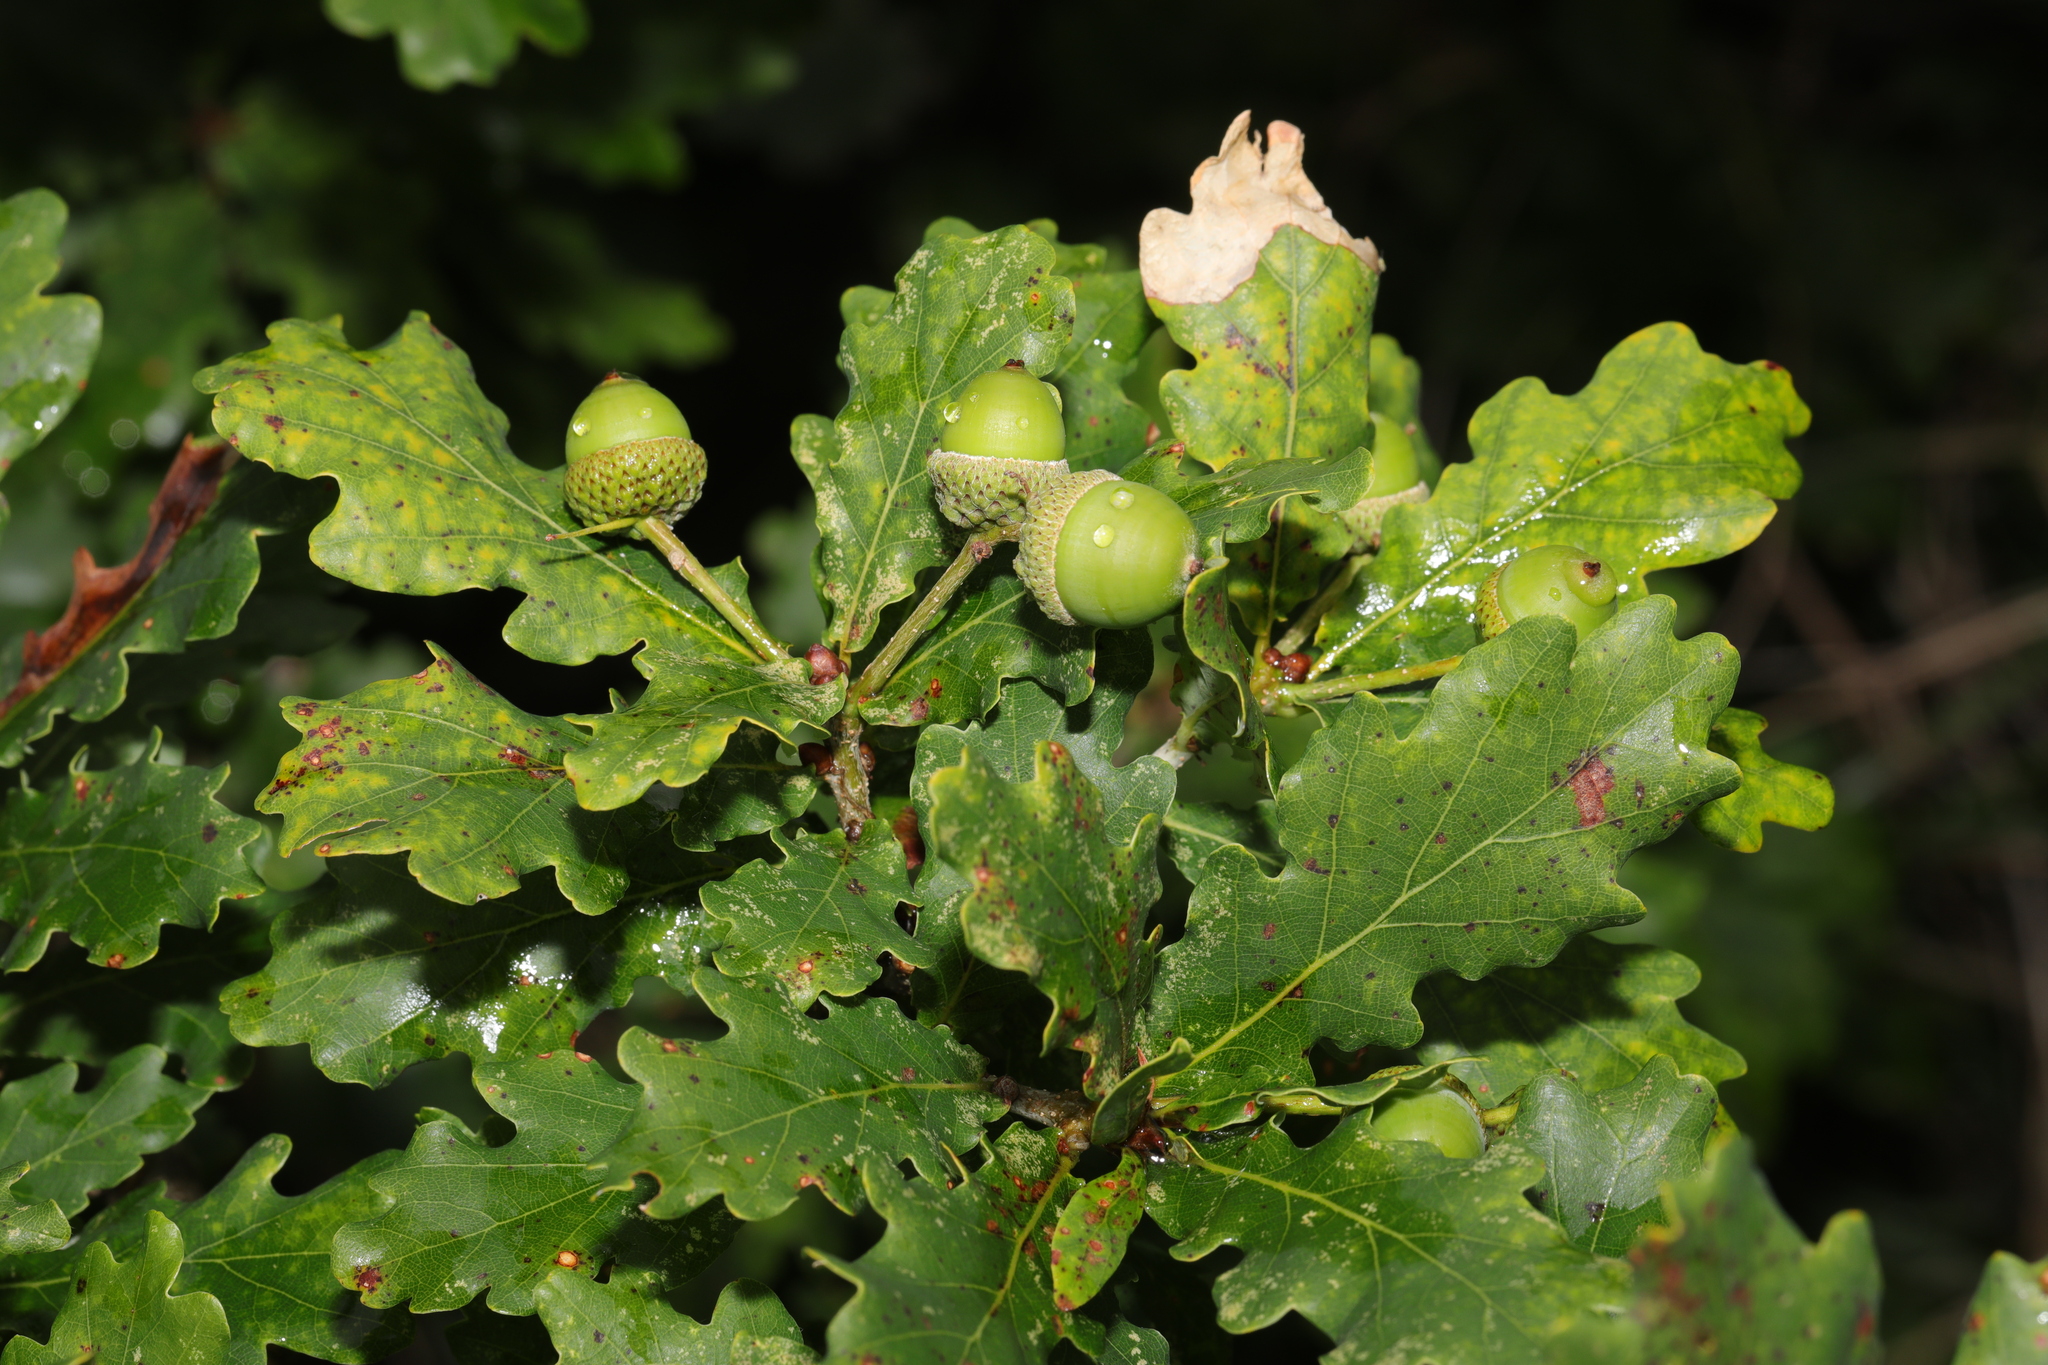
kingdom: Plantae
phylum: Tracheophyta
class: Magnoliopsida
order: Fagales
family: Fagaceae
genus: Quercus
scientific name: Quercus robur
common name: Pedunculate oak
